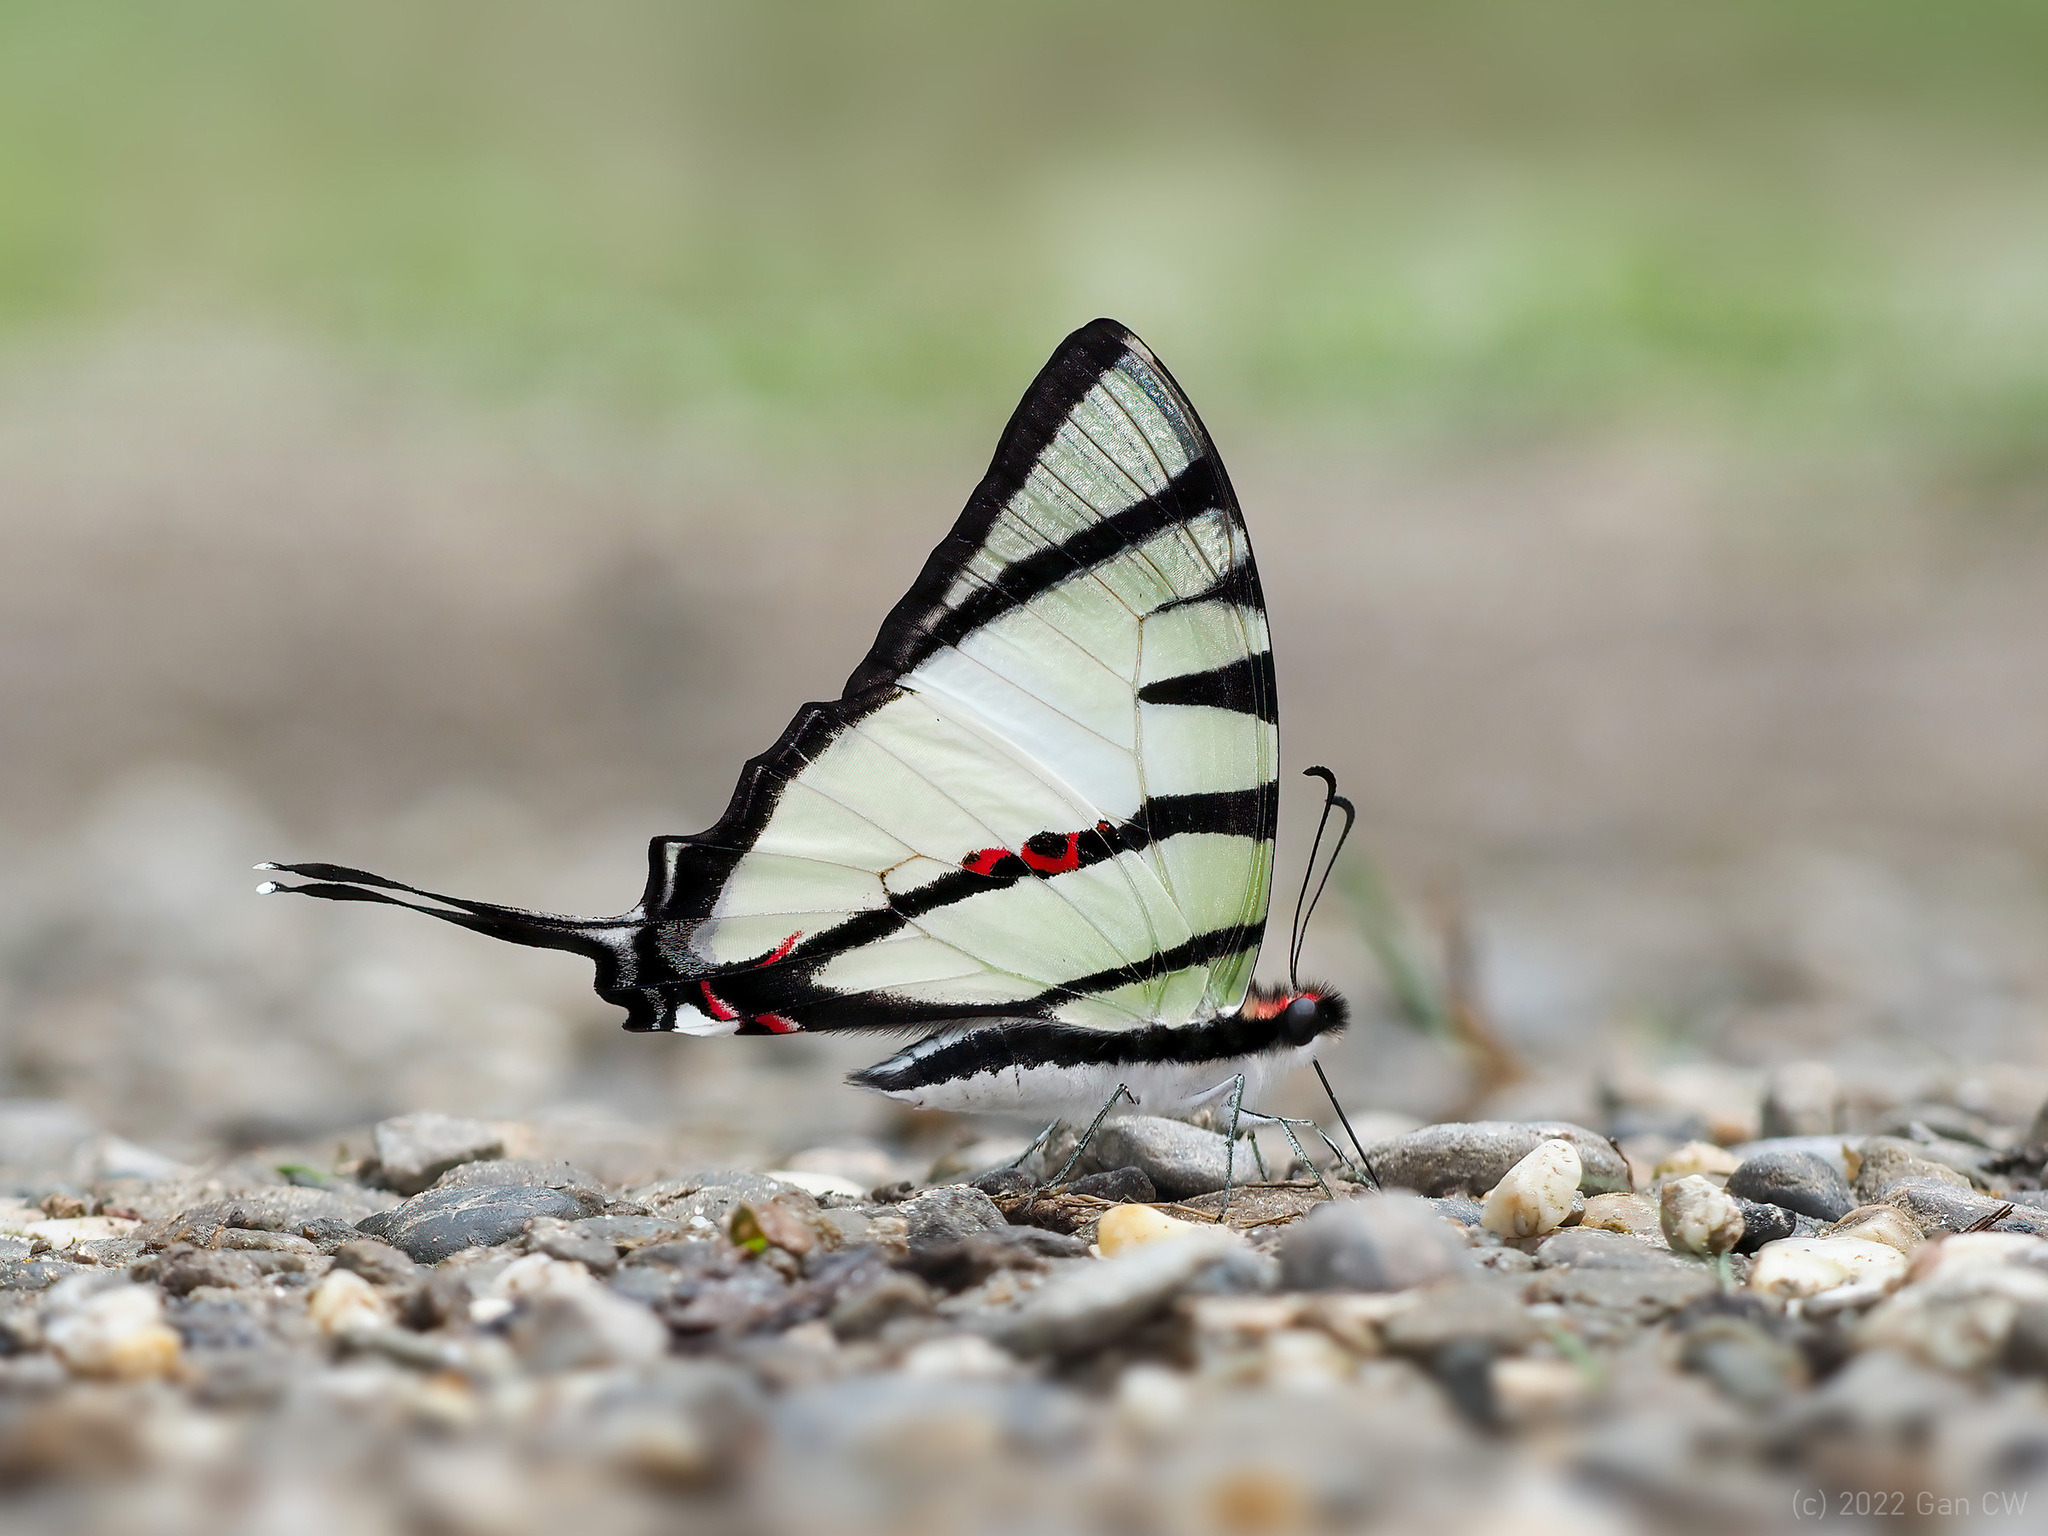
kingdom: Animalia
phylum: Arthropoda
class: Insecta
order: Lepidoptera
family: Papilionidae
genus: Graphium
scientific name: Graphium agetes
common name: Fourbar swordtail
